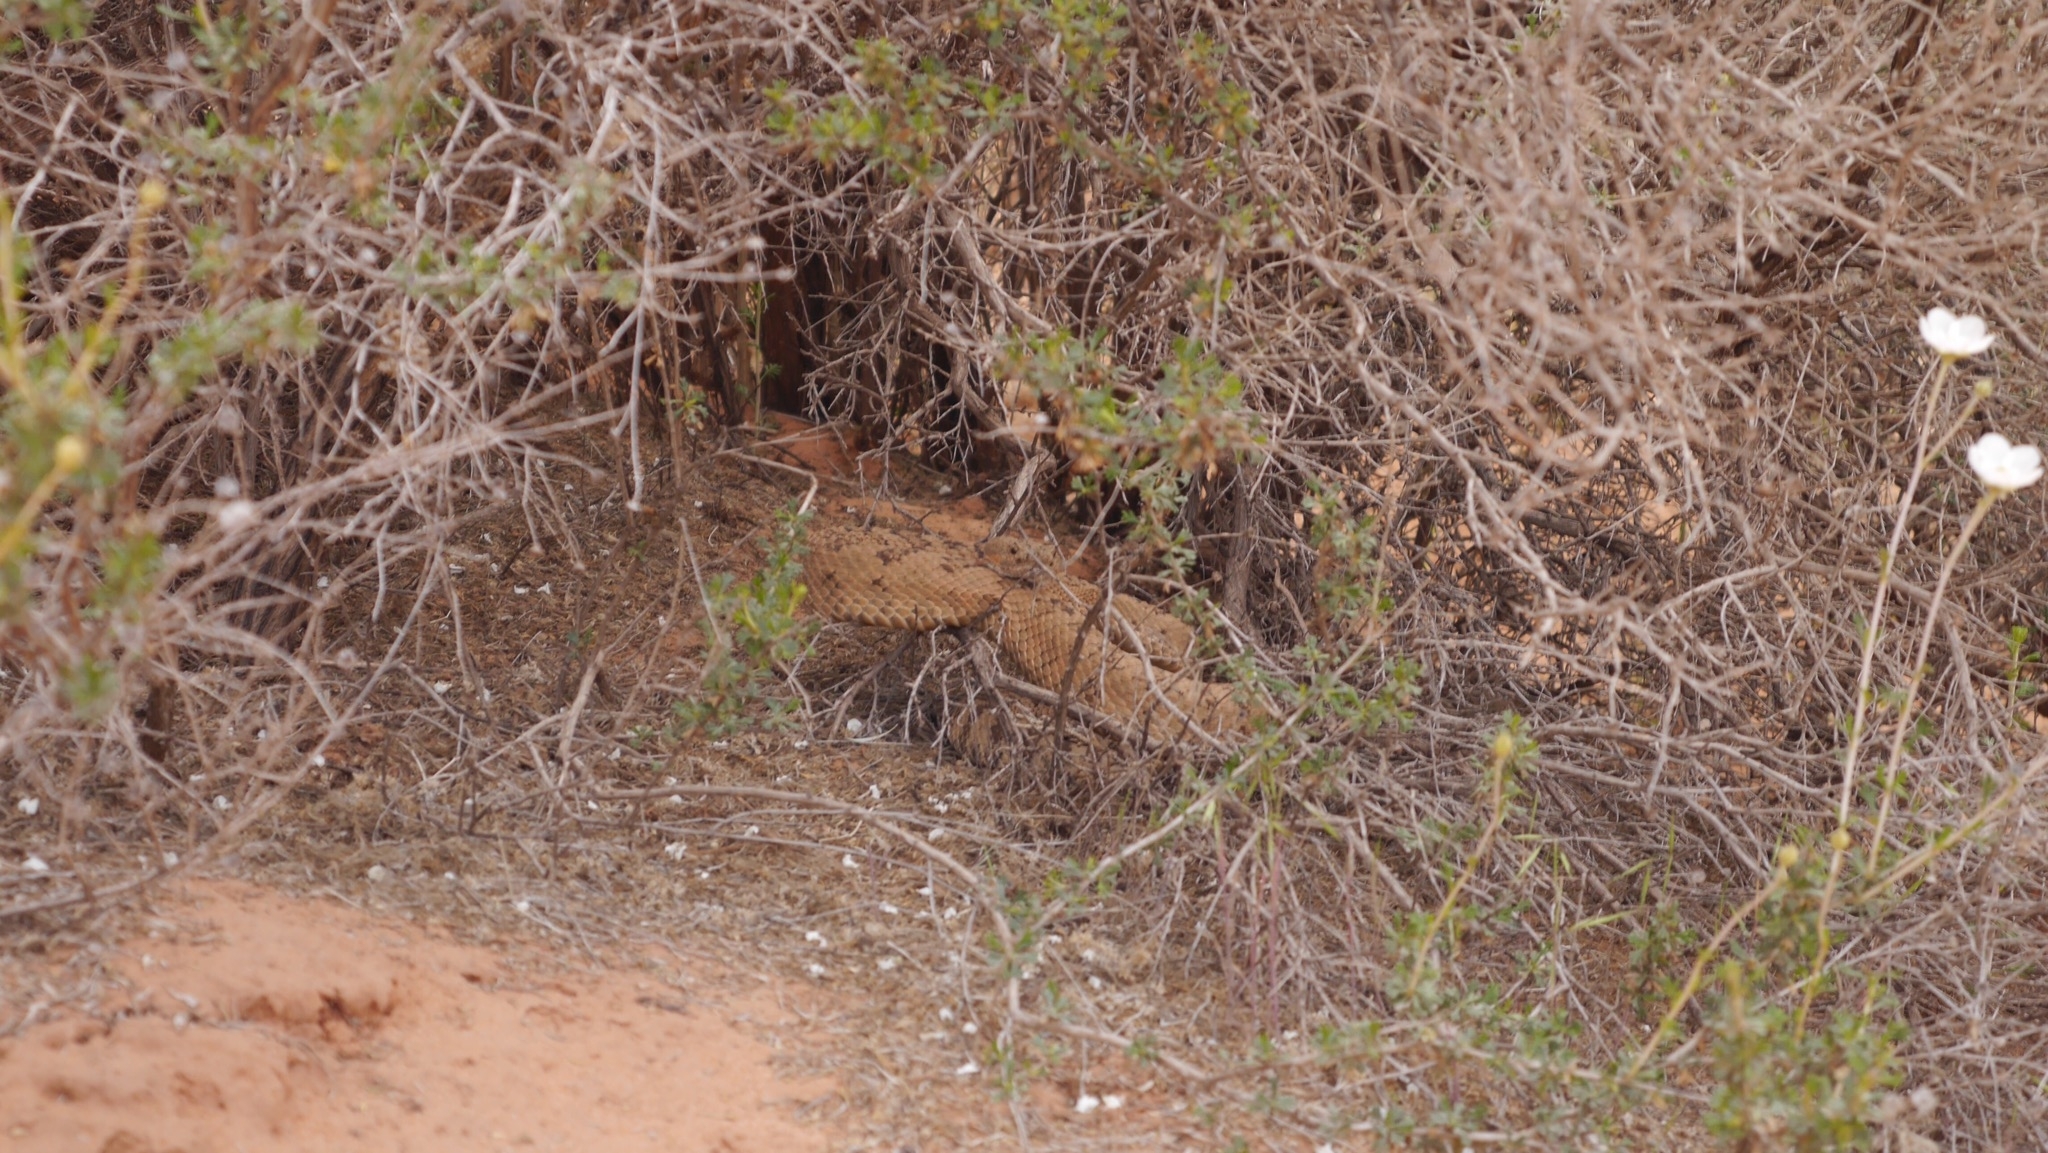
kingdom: Animalia
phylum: Chordata
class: Squamata
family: Viperidae
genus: Crotalus
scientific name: Crotalus oreganus
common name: Abyssus
